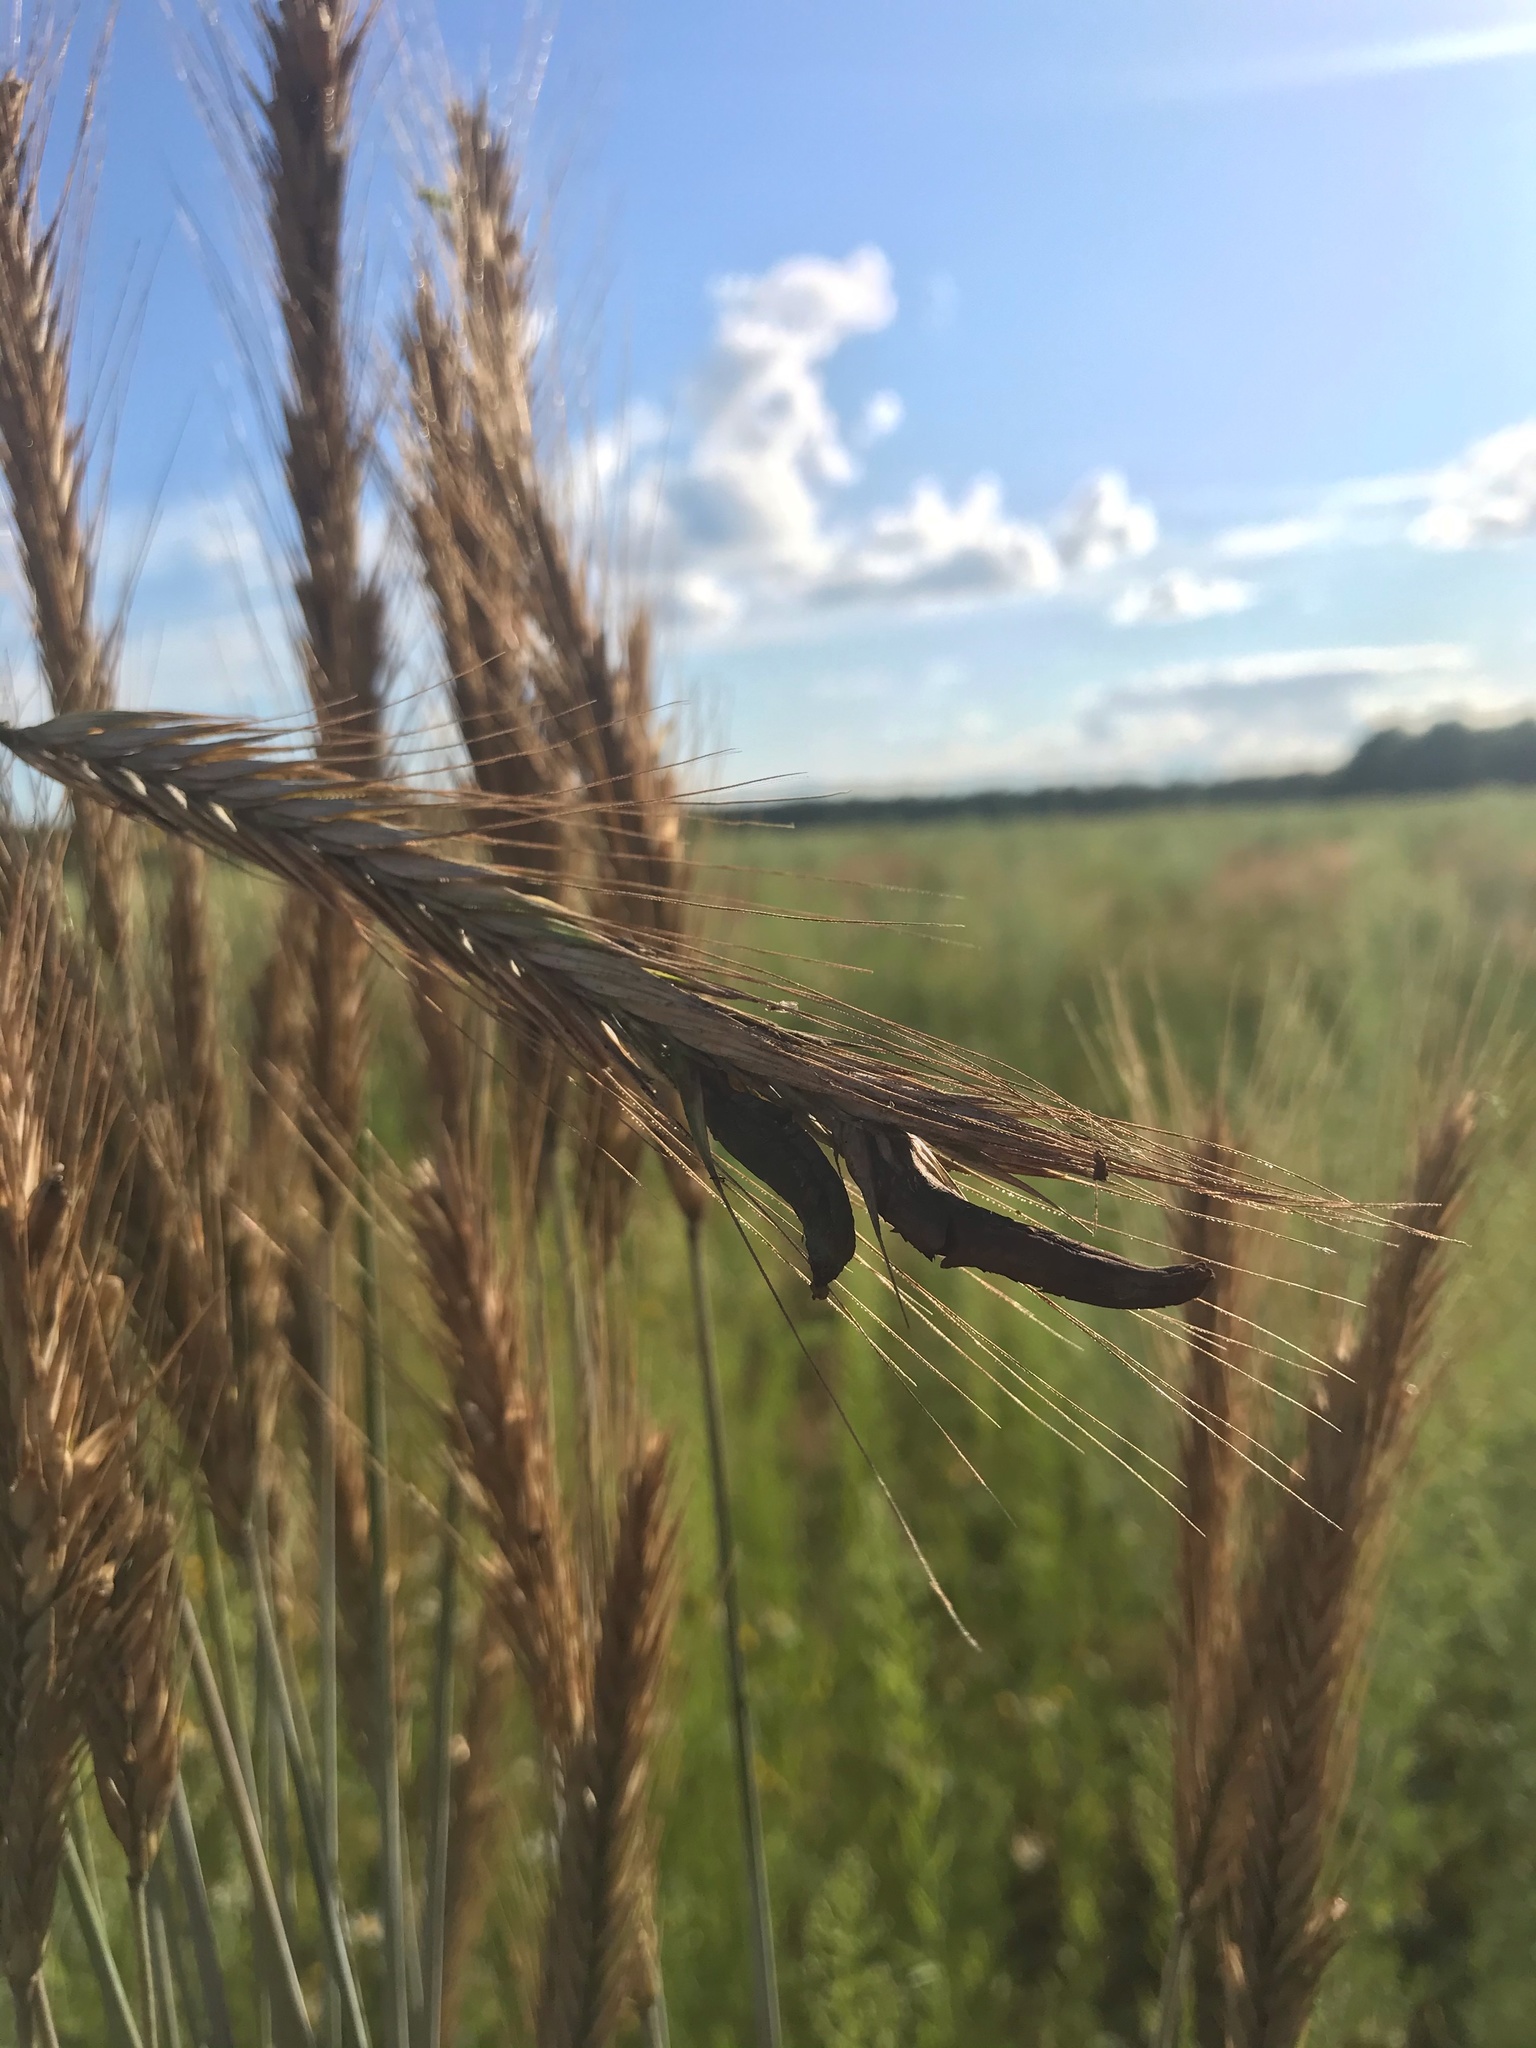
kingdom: Fungi
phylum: Ascomycota
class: Sordariomycetes
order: Hypocreales
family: Clavicipitaceae
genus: Claviceps
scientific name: Claviceps purpurea
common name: Rye ergot
